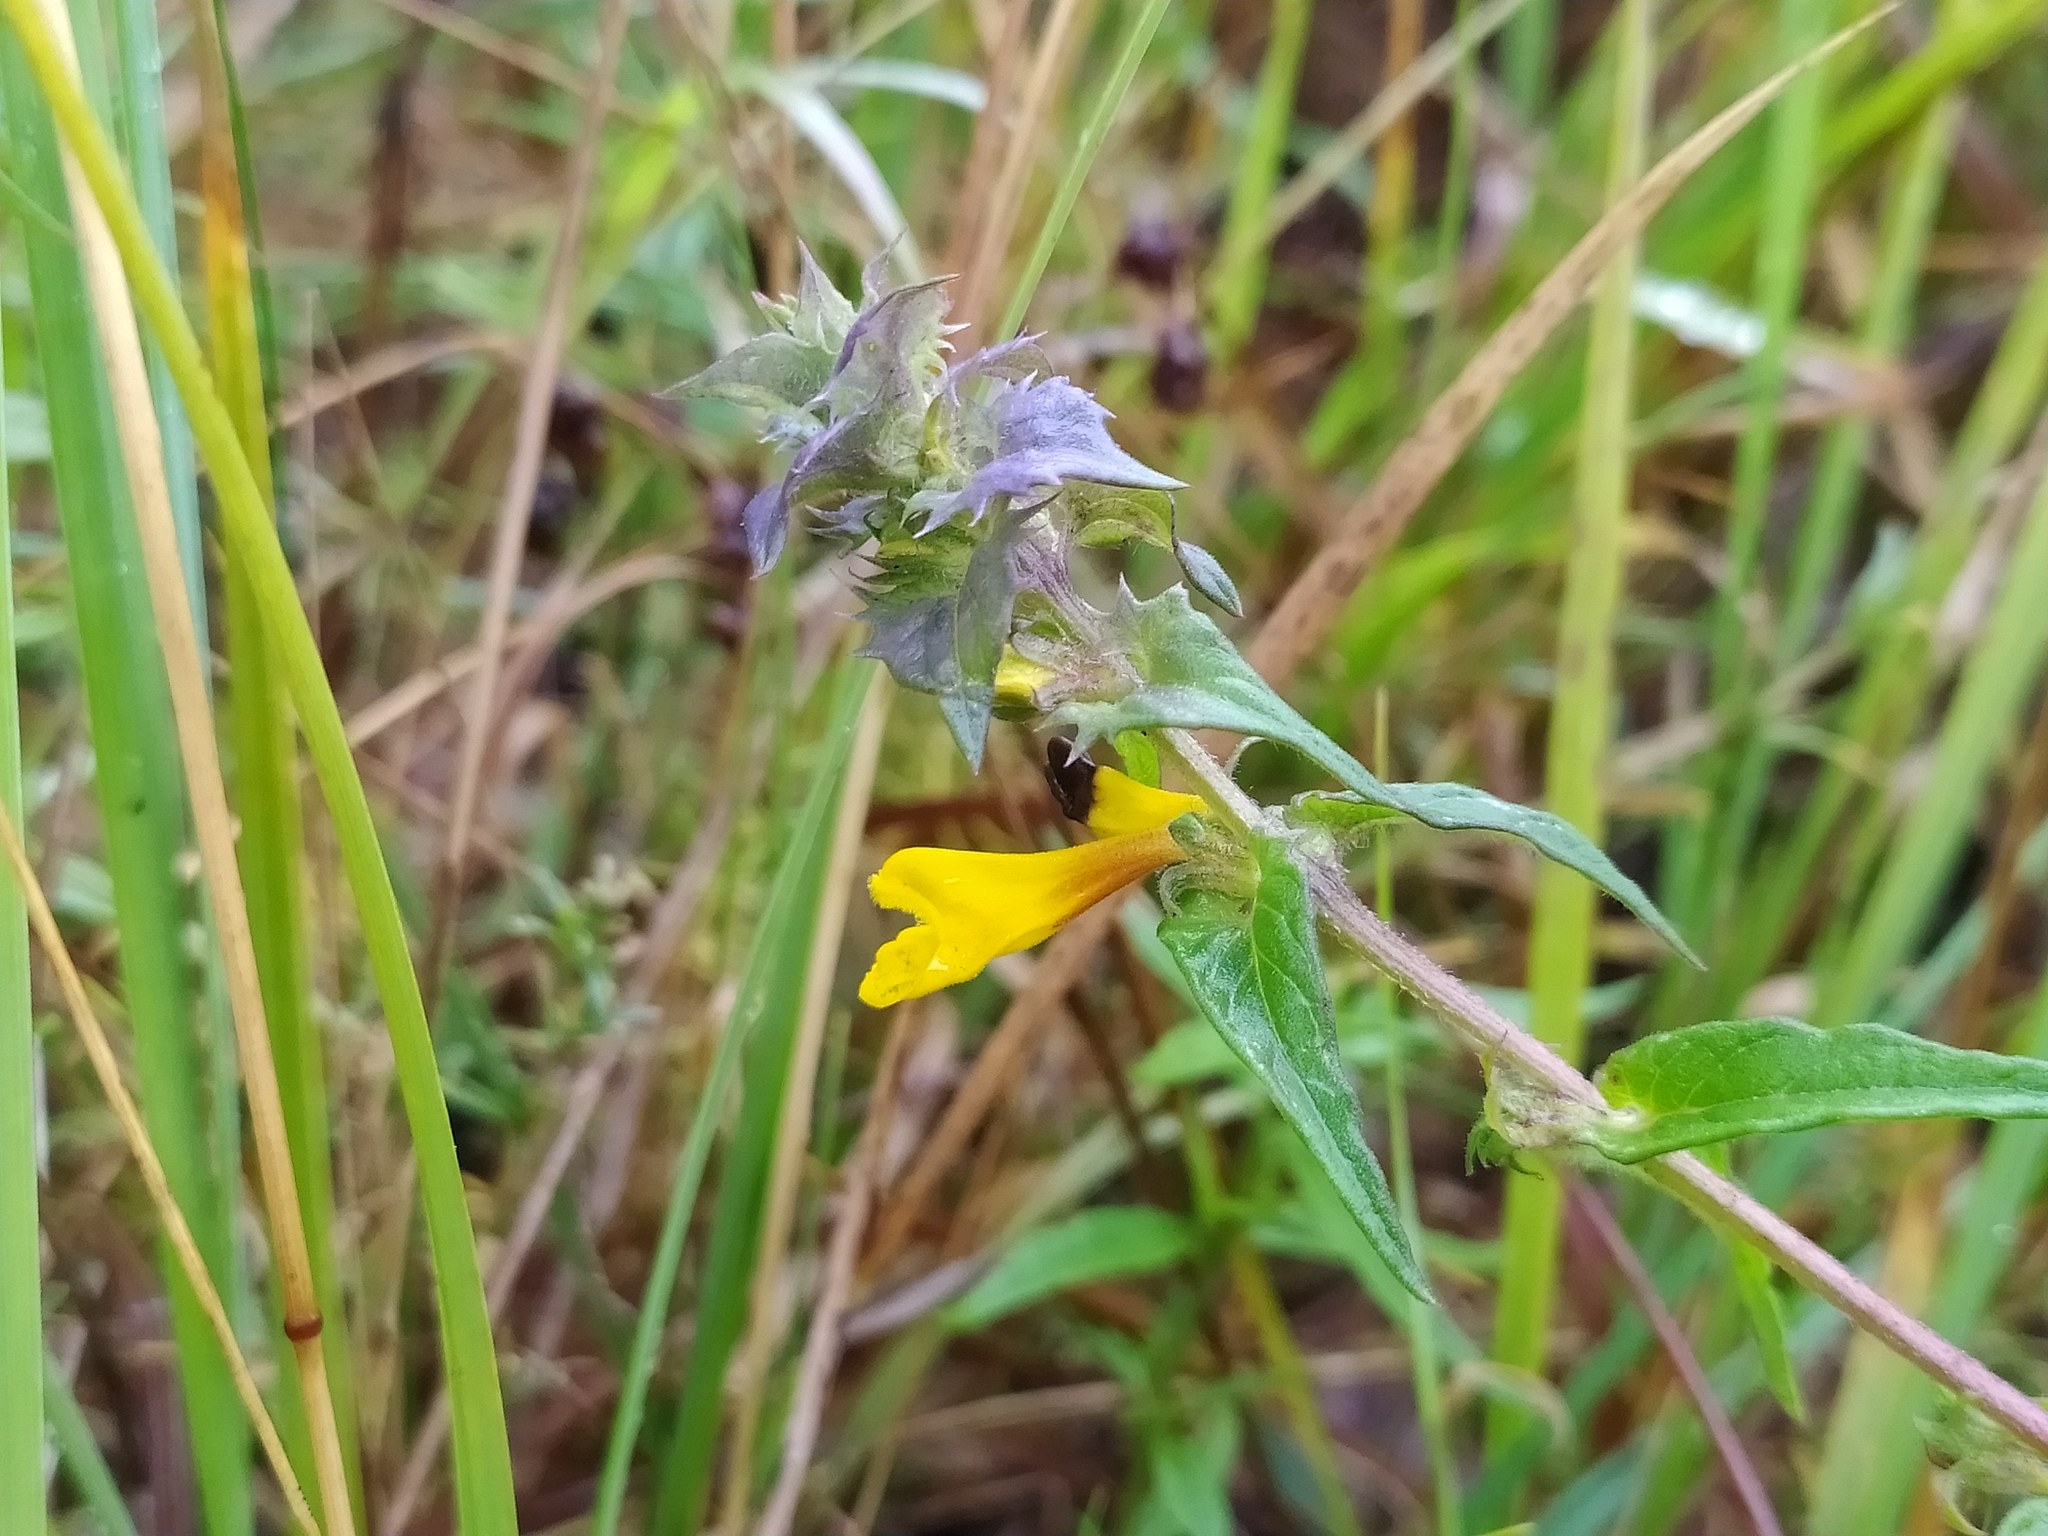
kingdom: Plantae
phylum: Tracheophyta
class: Magnoliopsida
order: Lamiales
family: Orobanchaceae
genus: Melampyrum
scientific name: Melampyrum nemorosum
